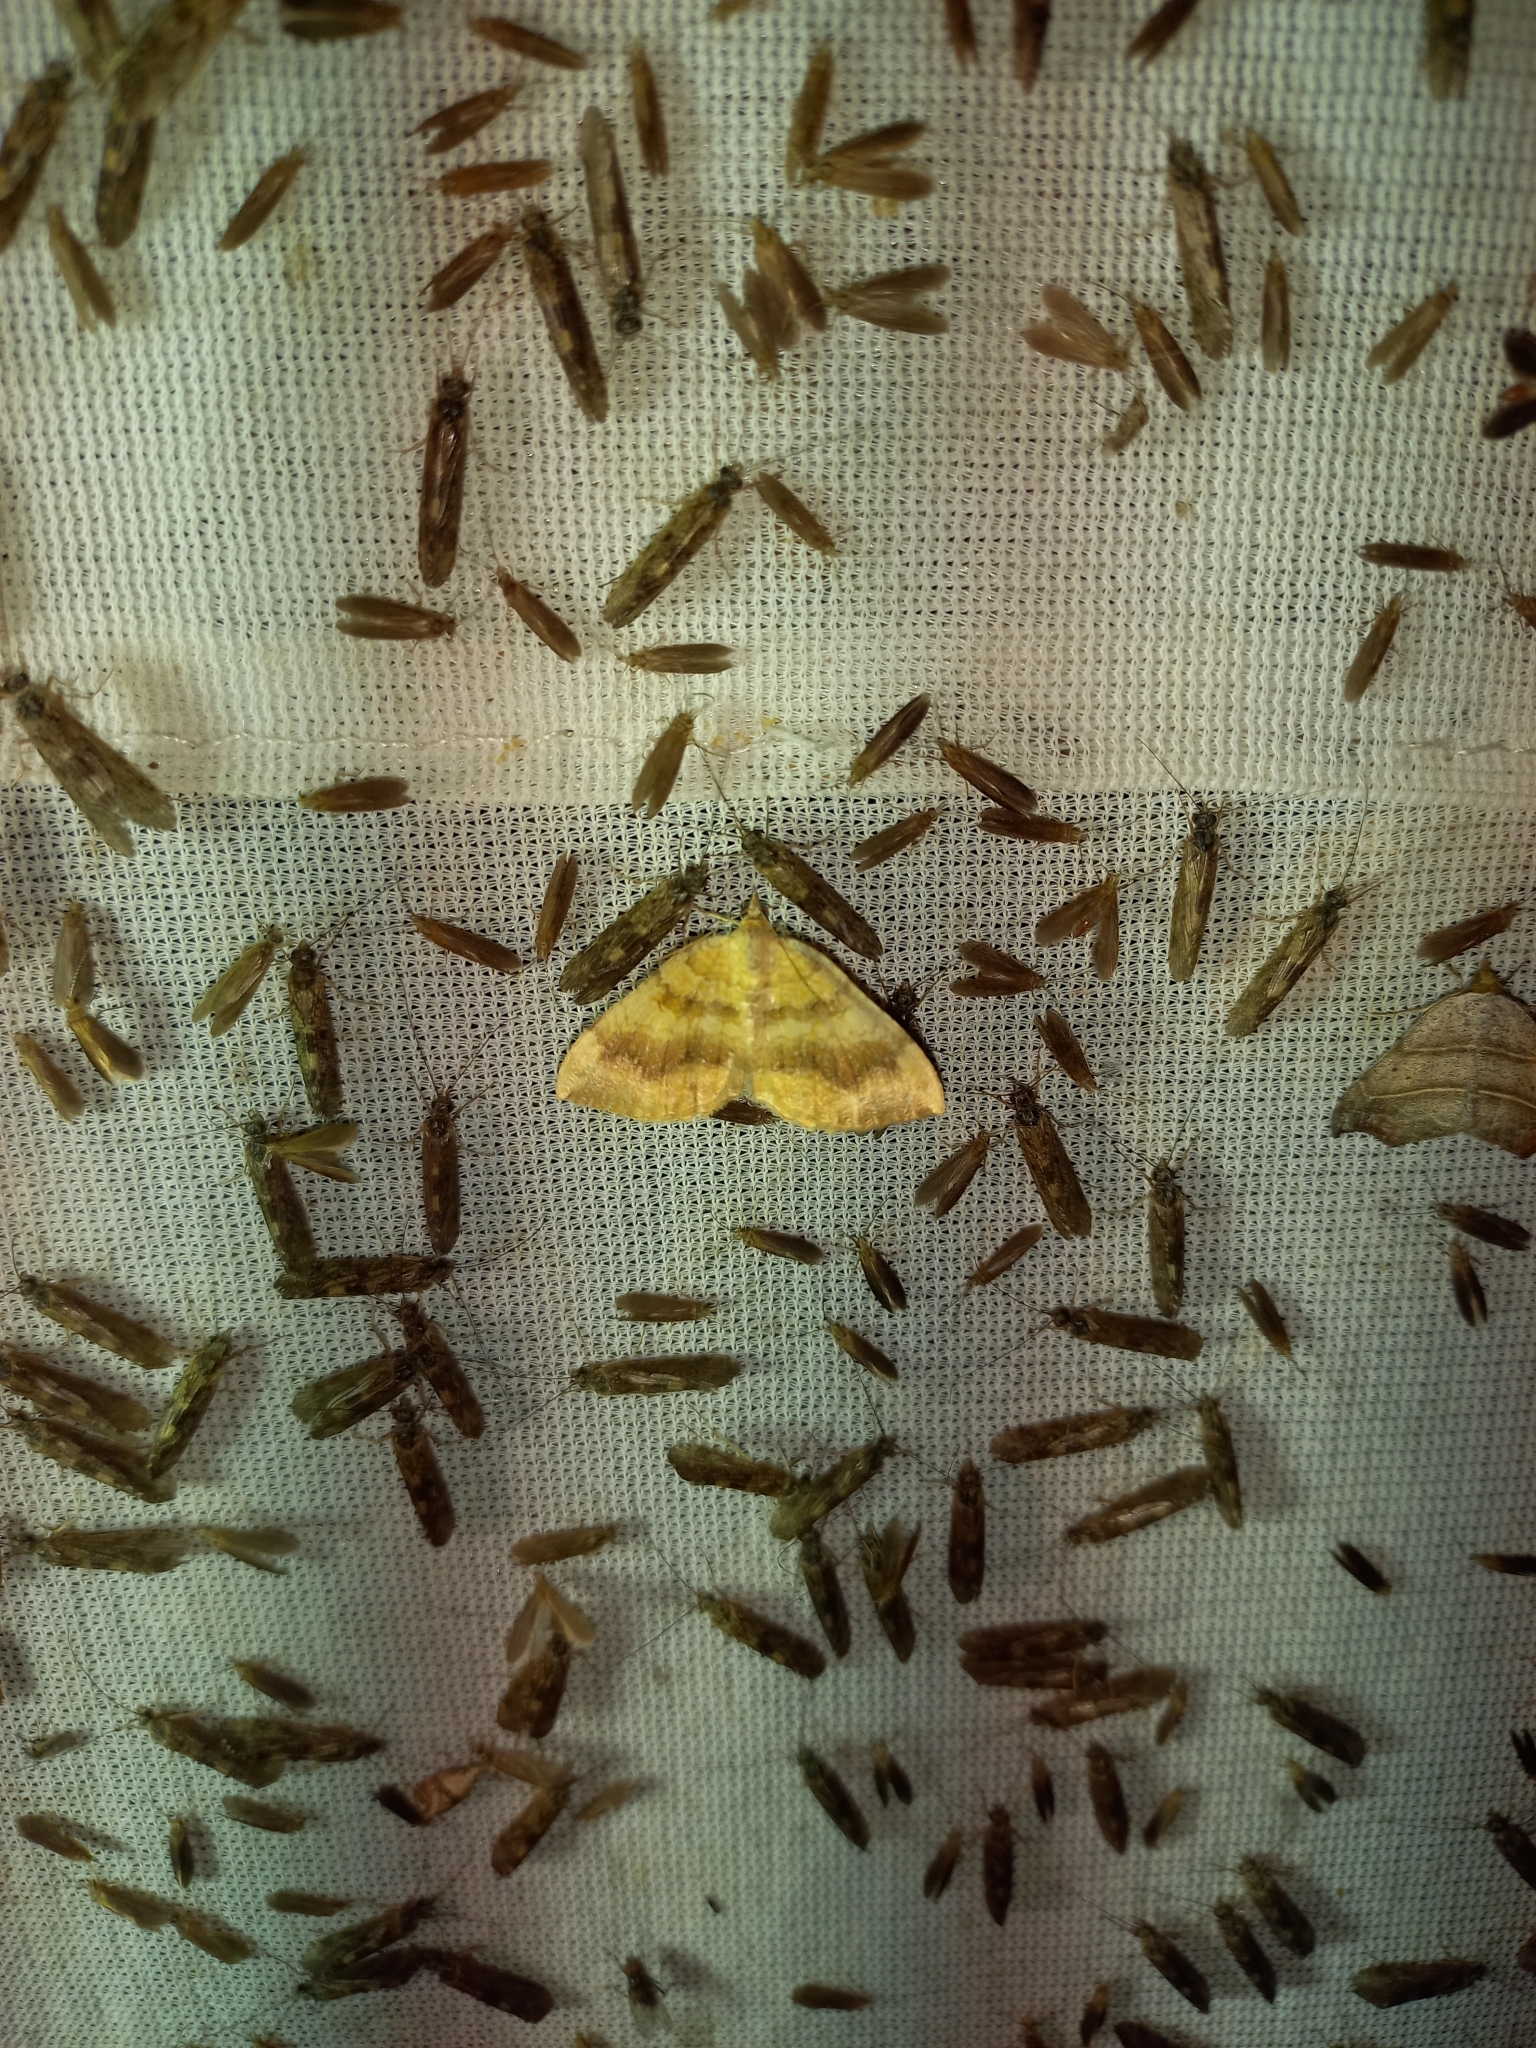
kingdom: Animalia
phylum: Arthropoda
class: Insecta
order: Lepidoptera
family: Geometridae
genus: Camptogramma
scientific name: Camptogramma bilineata
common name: Yellow shell
